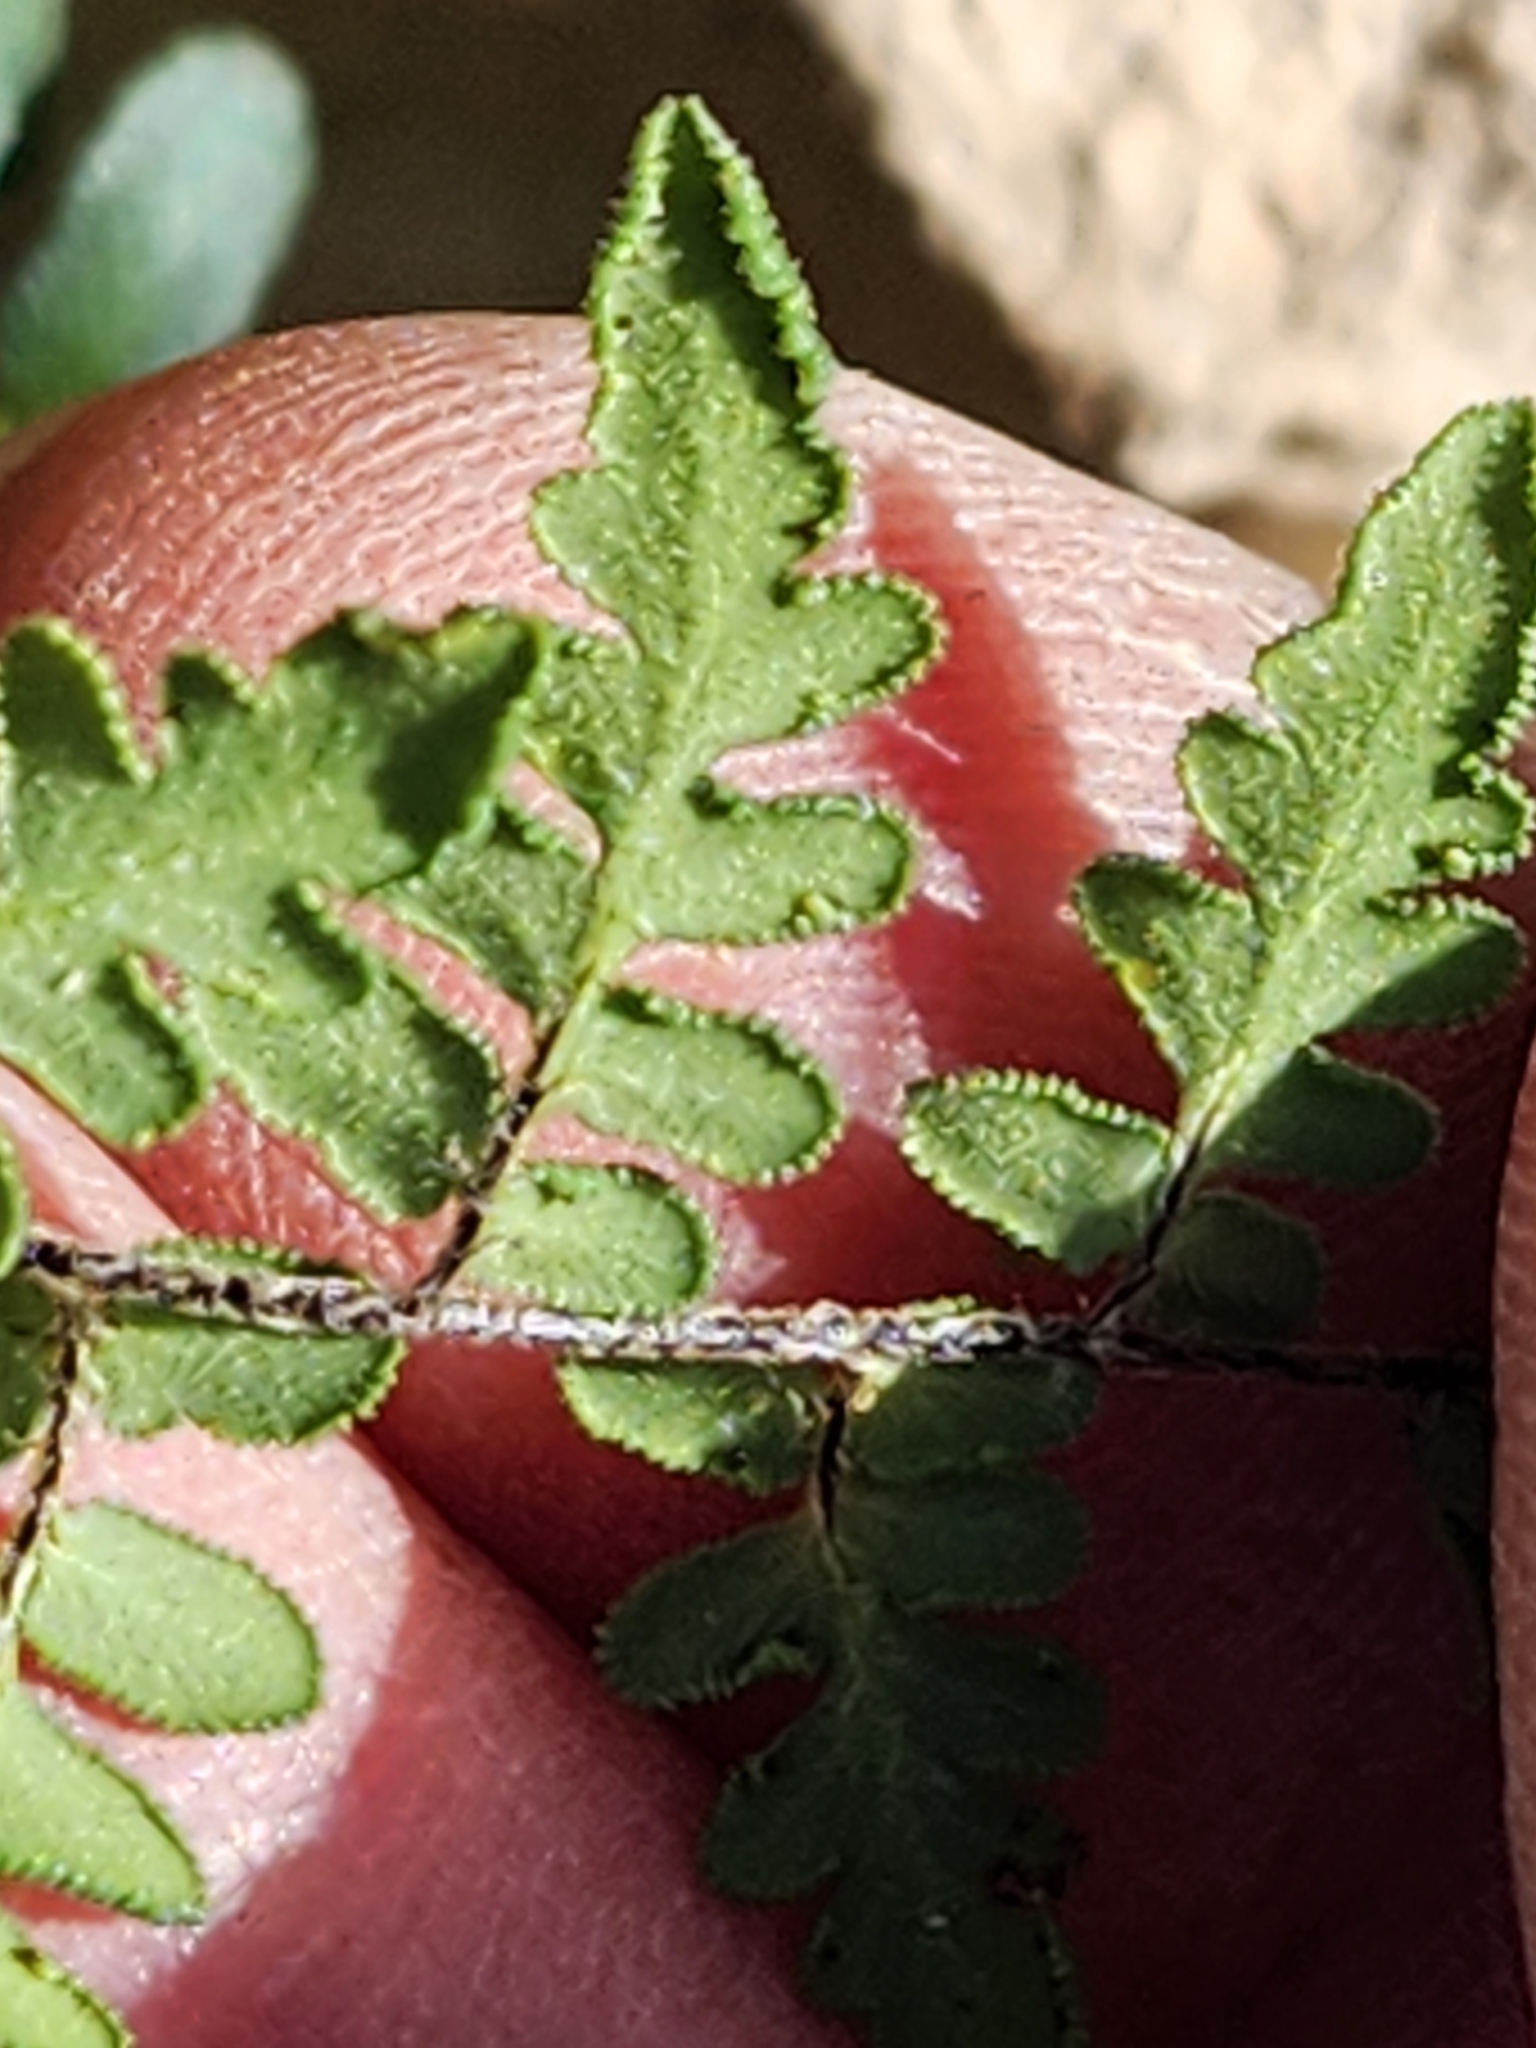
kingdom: Plantae
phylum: Tracheophyta
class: Polypodiopsida
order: Polypodiales
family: Pteridaceae
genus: Myriopteris
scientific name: Myriopteris scabra
